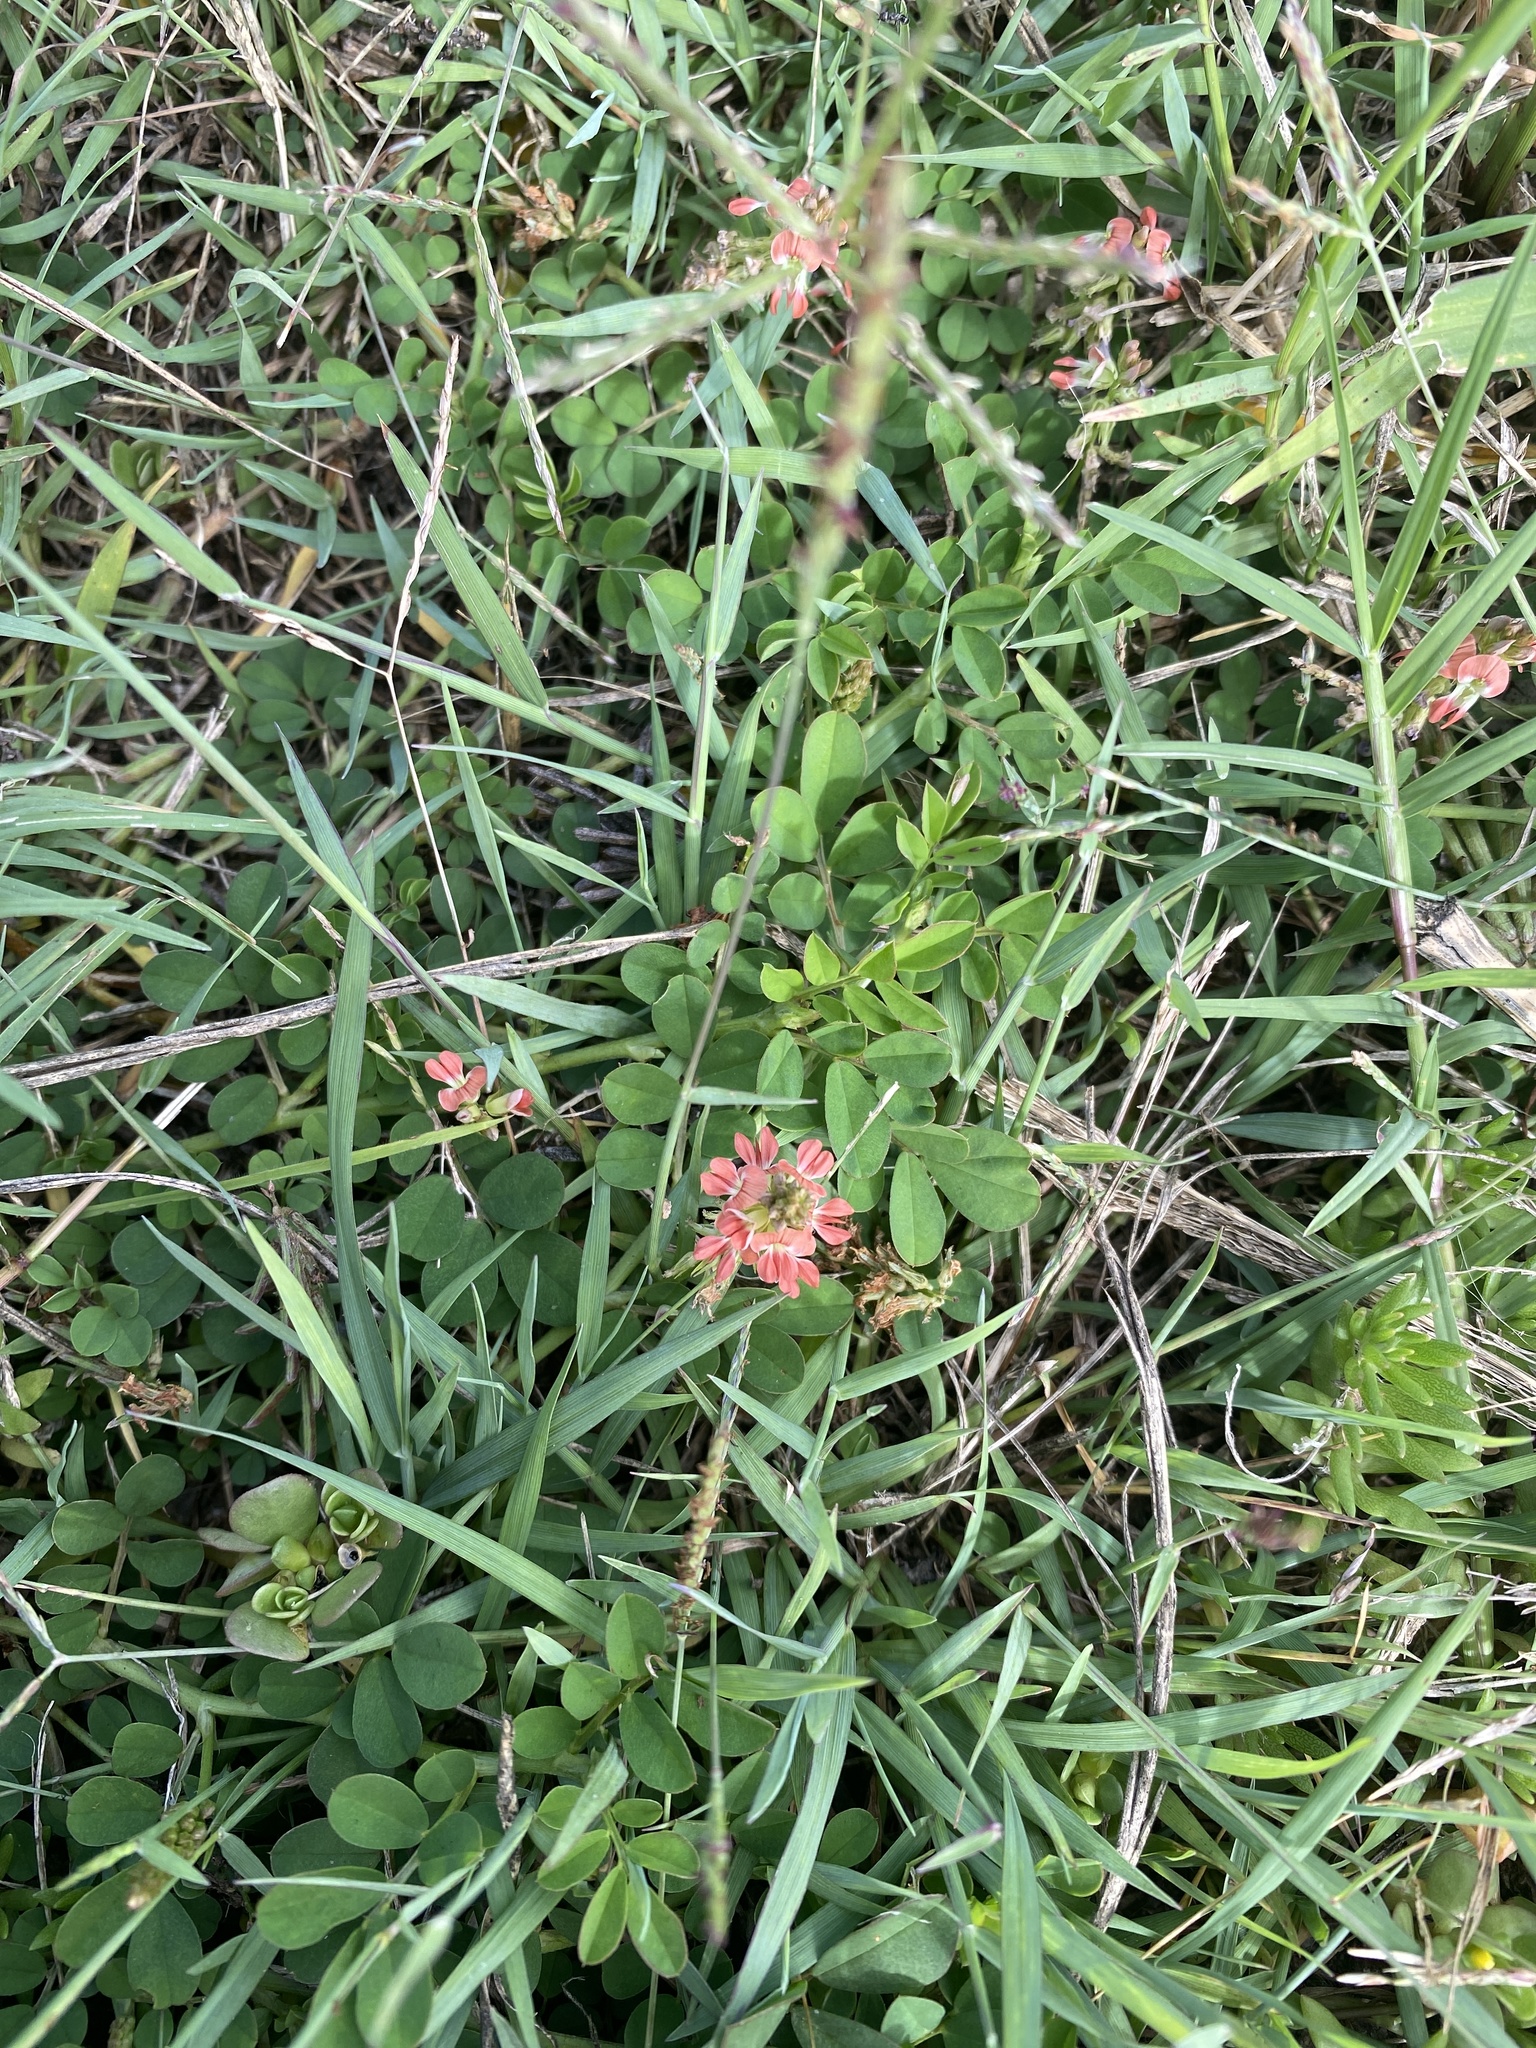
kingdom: Plantae
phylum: Tracheophyta
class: Magnoliopsida
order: Fabales
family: Fabaceae
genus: Indigofera
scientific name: Indigofera spicata
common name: Creeping indigo
